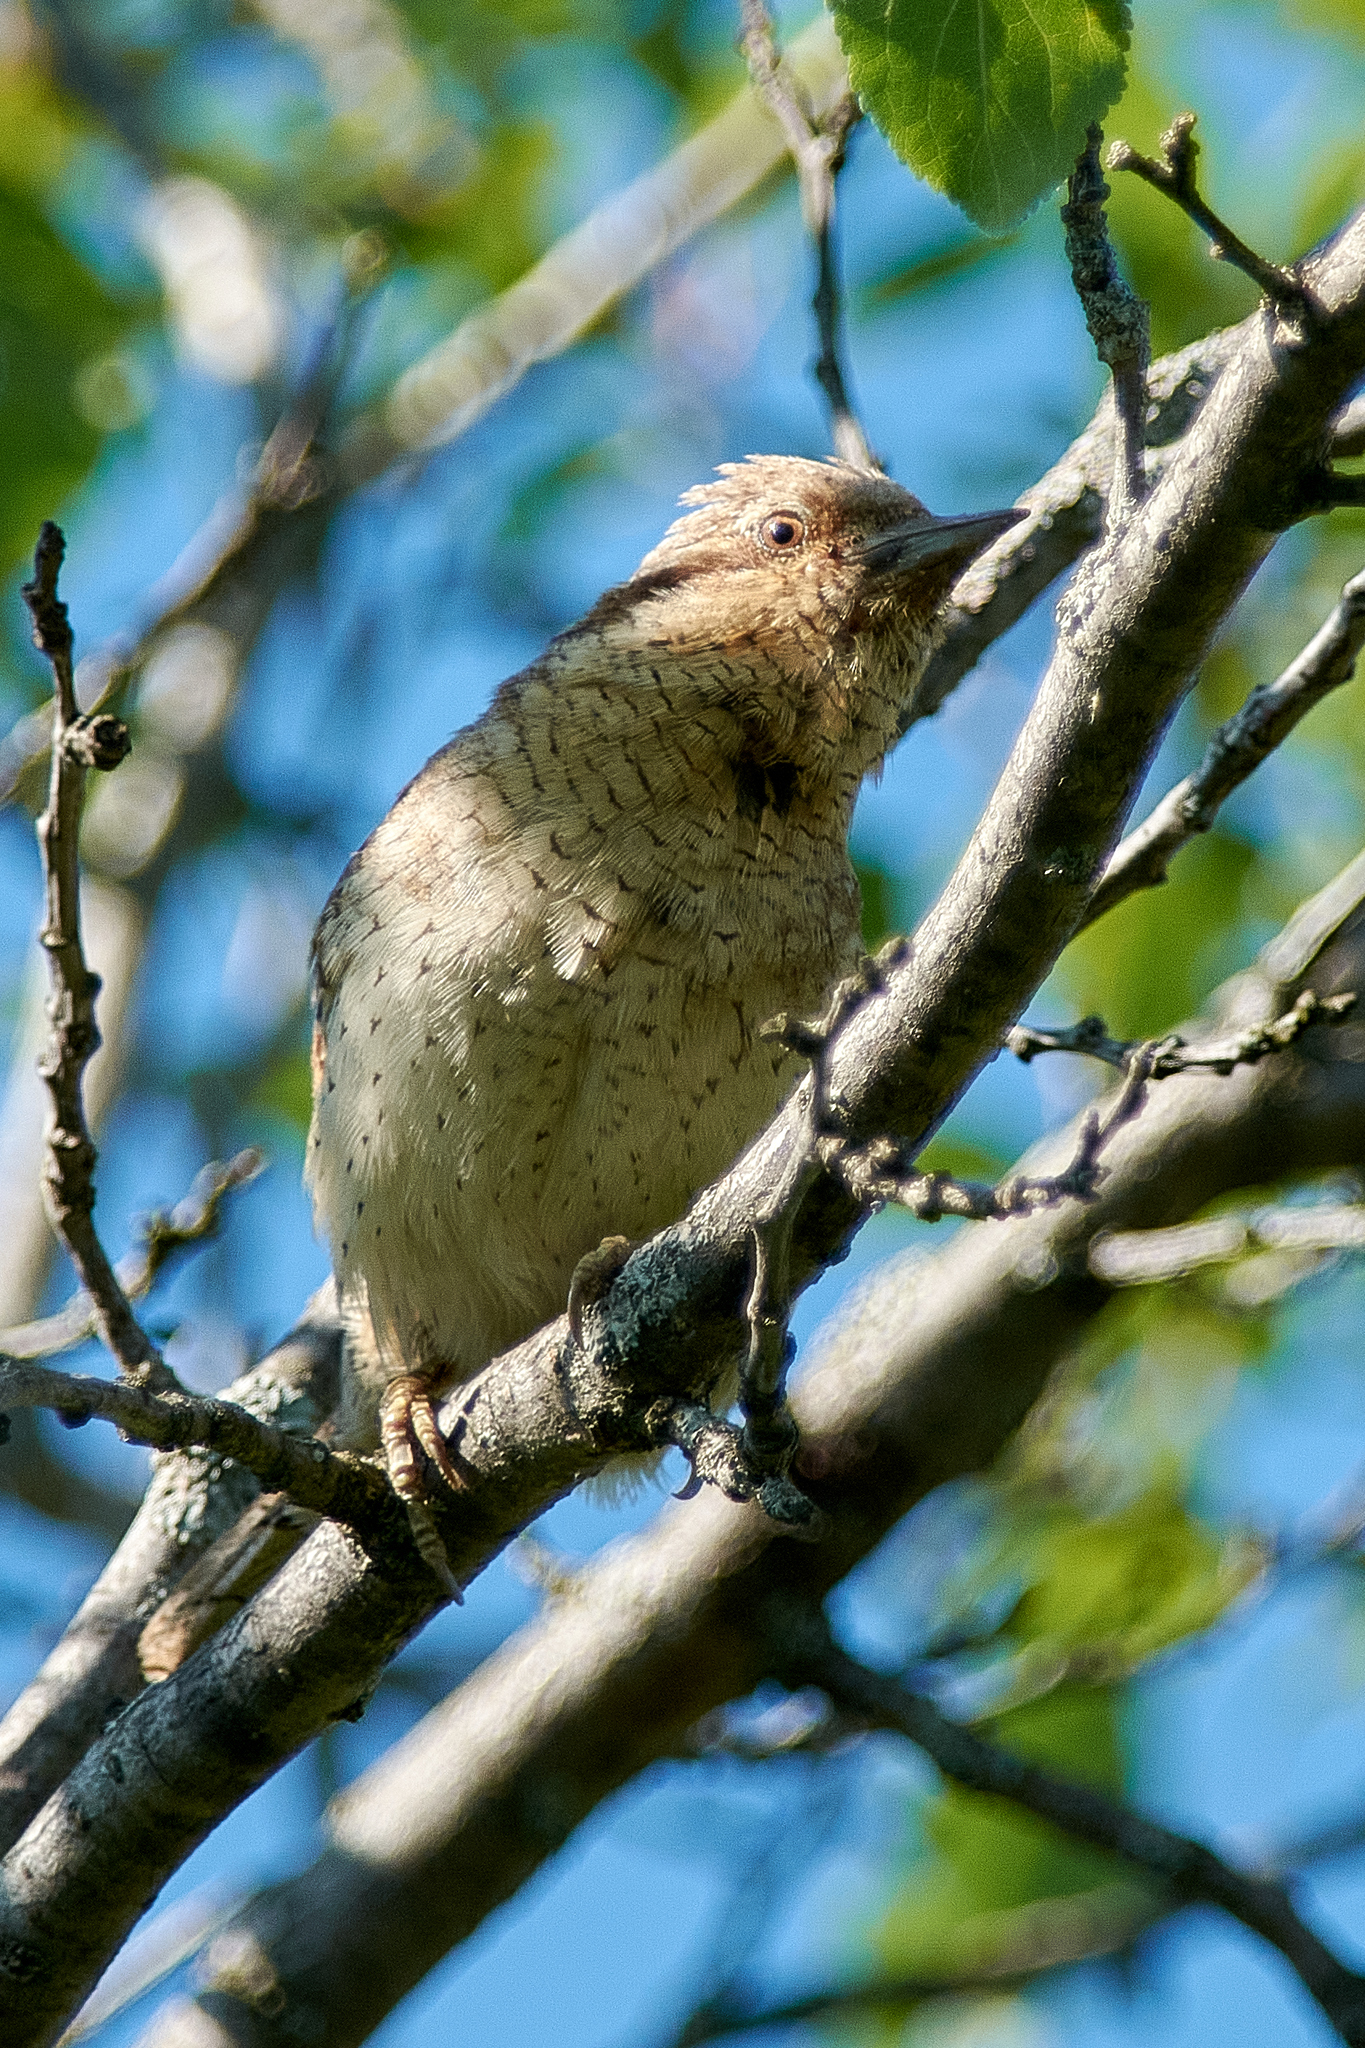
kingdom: Animalia
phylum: Chordata
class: Aves
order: Piciformes
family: Picidae
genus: Jynx
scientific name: Jynx torquilla
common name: Eurasian wryneck
